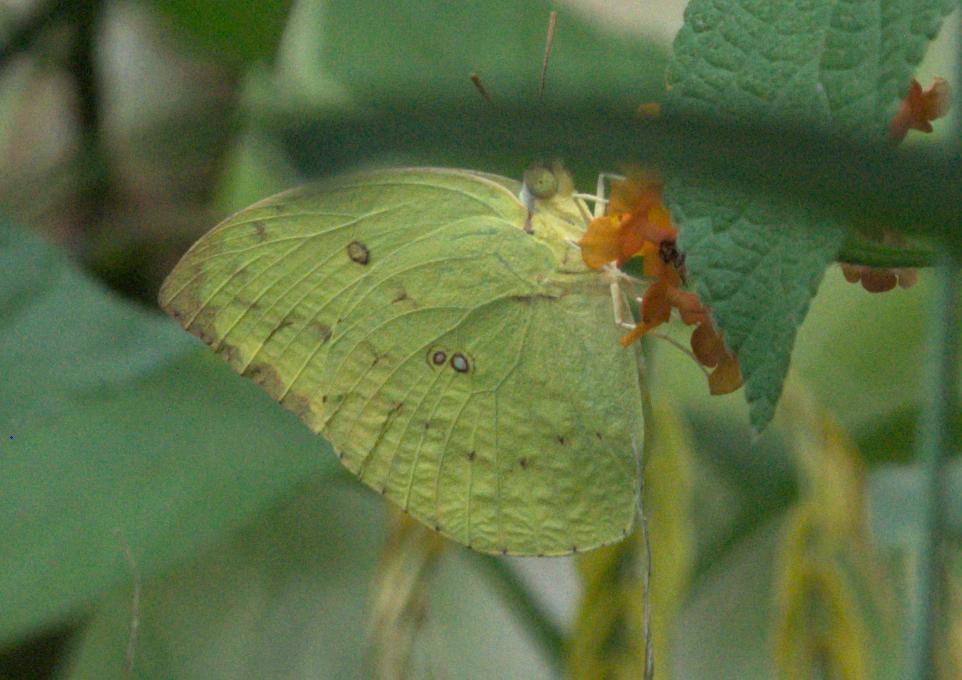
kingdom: Animalia
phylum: Arthropoda
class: Insecta
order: Lepidoptera
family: Pieridae
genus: Catopsilia
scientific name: Catopsilia pomona
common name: Common emigrant
